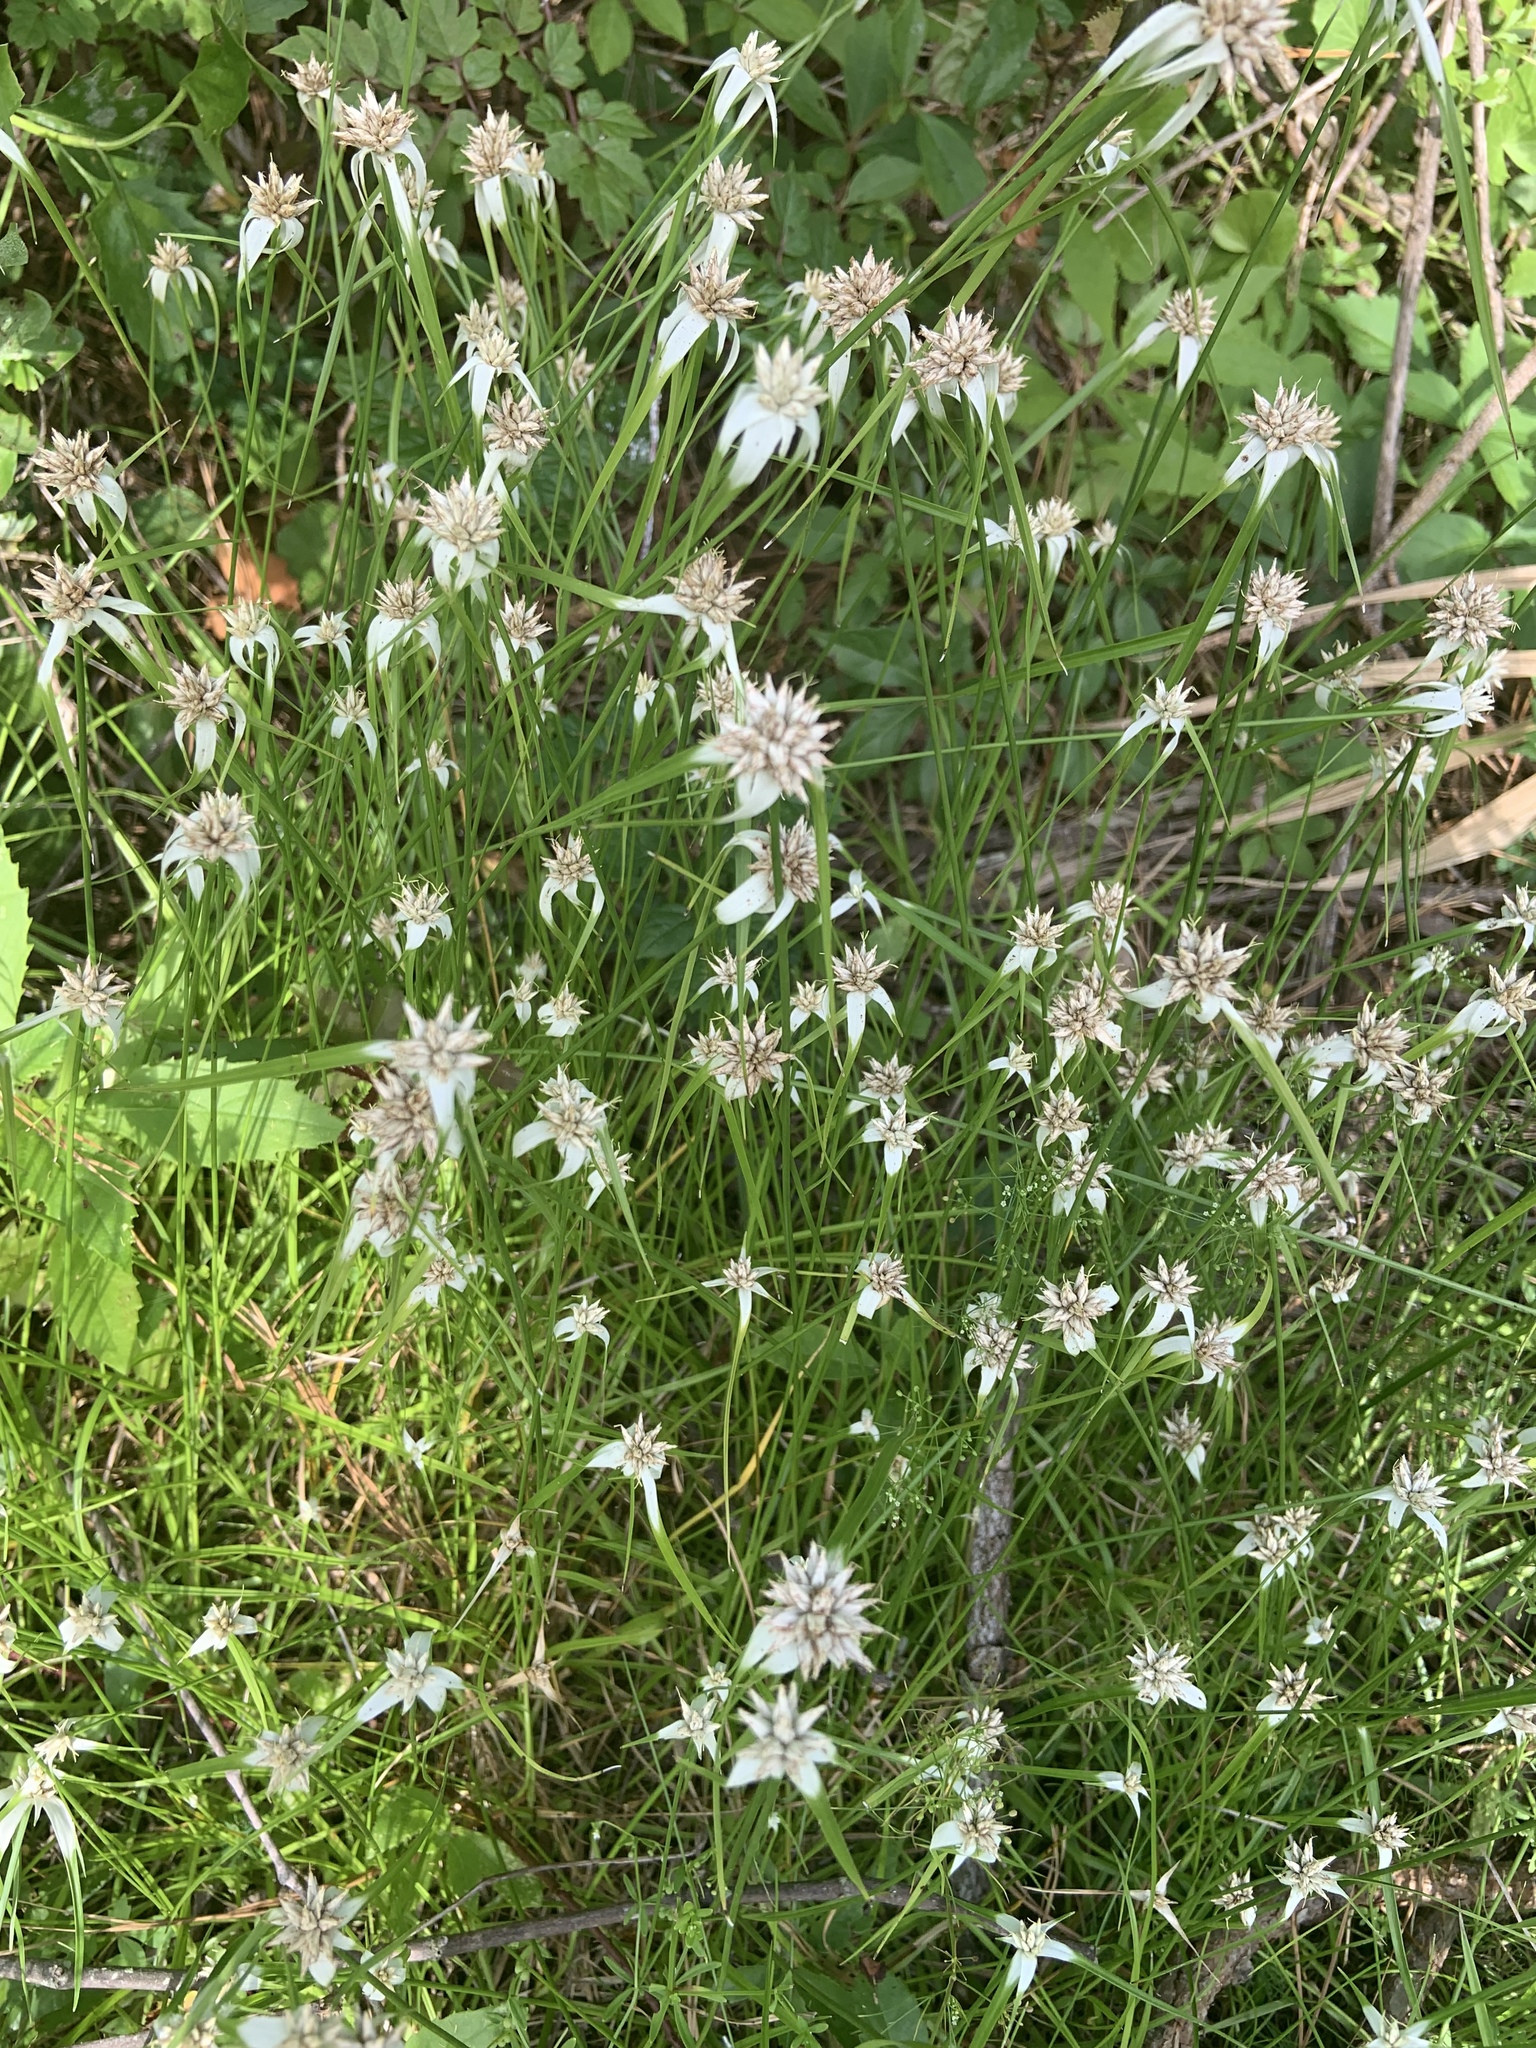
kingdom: Plantae
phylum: Tracheophyta
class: Liliopsida
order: Poales
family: Cyperaceae
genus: Rhynchospora
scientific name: Rhynchospora colorata
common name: Star sedge
